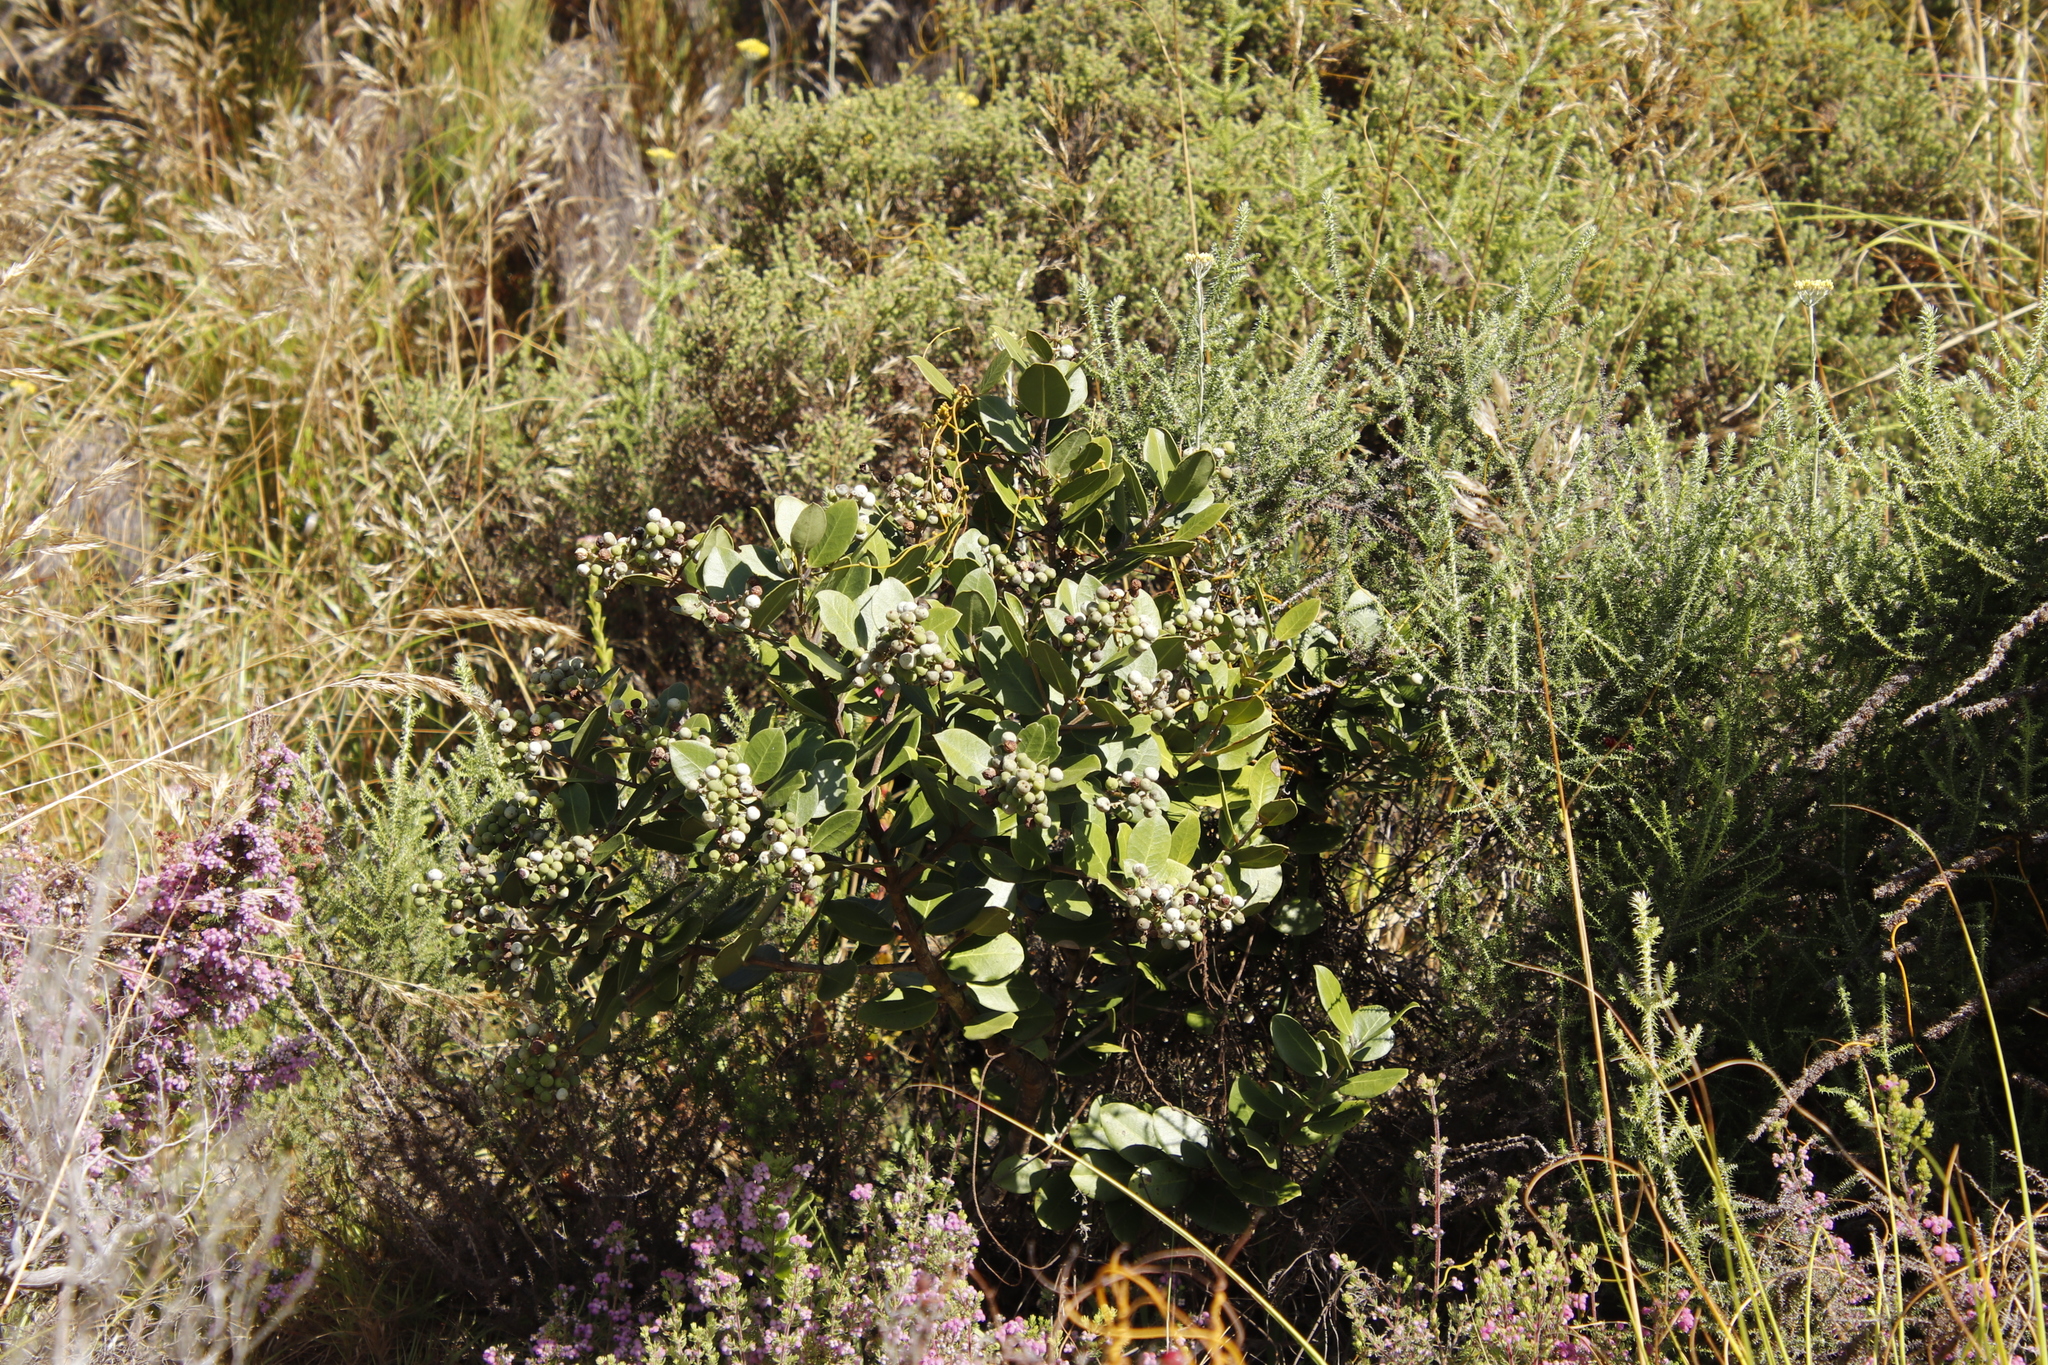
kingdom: Plantae
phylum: Tracheophyta
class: Magnoliopsida
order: Lamiales
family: Oleaceae
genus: Olea
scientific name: Olea capensis
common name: Black ironwood
